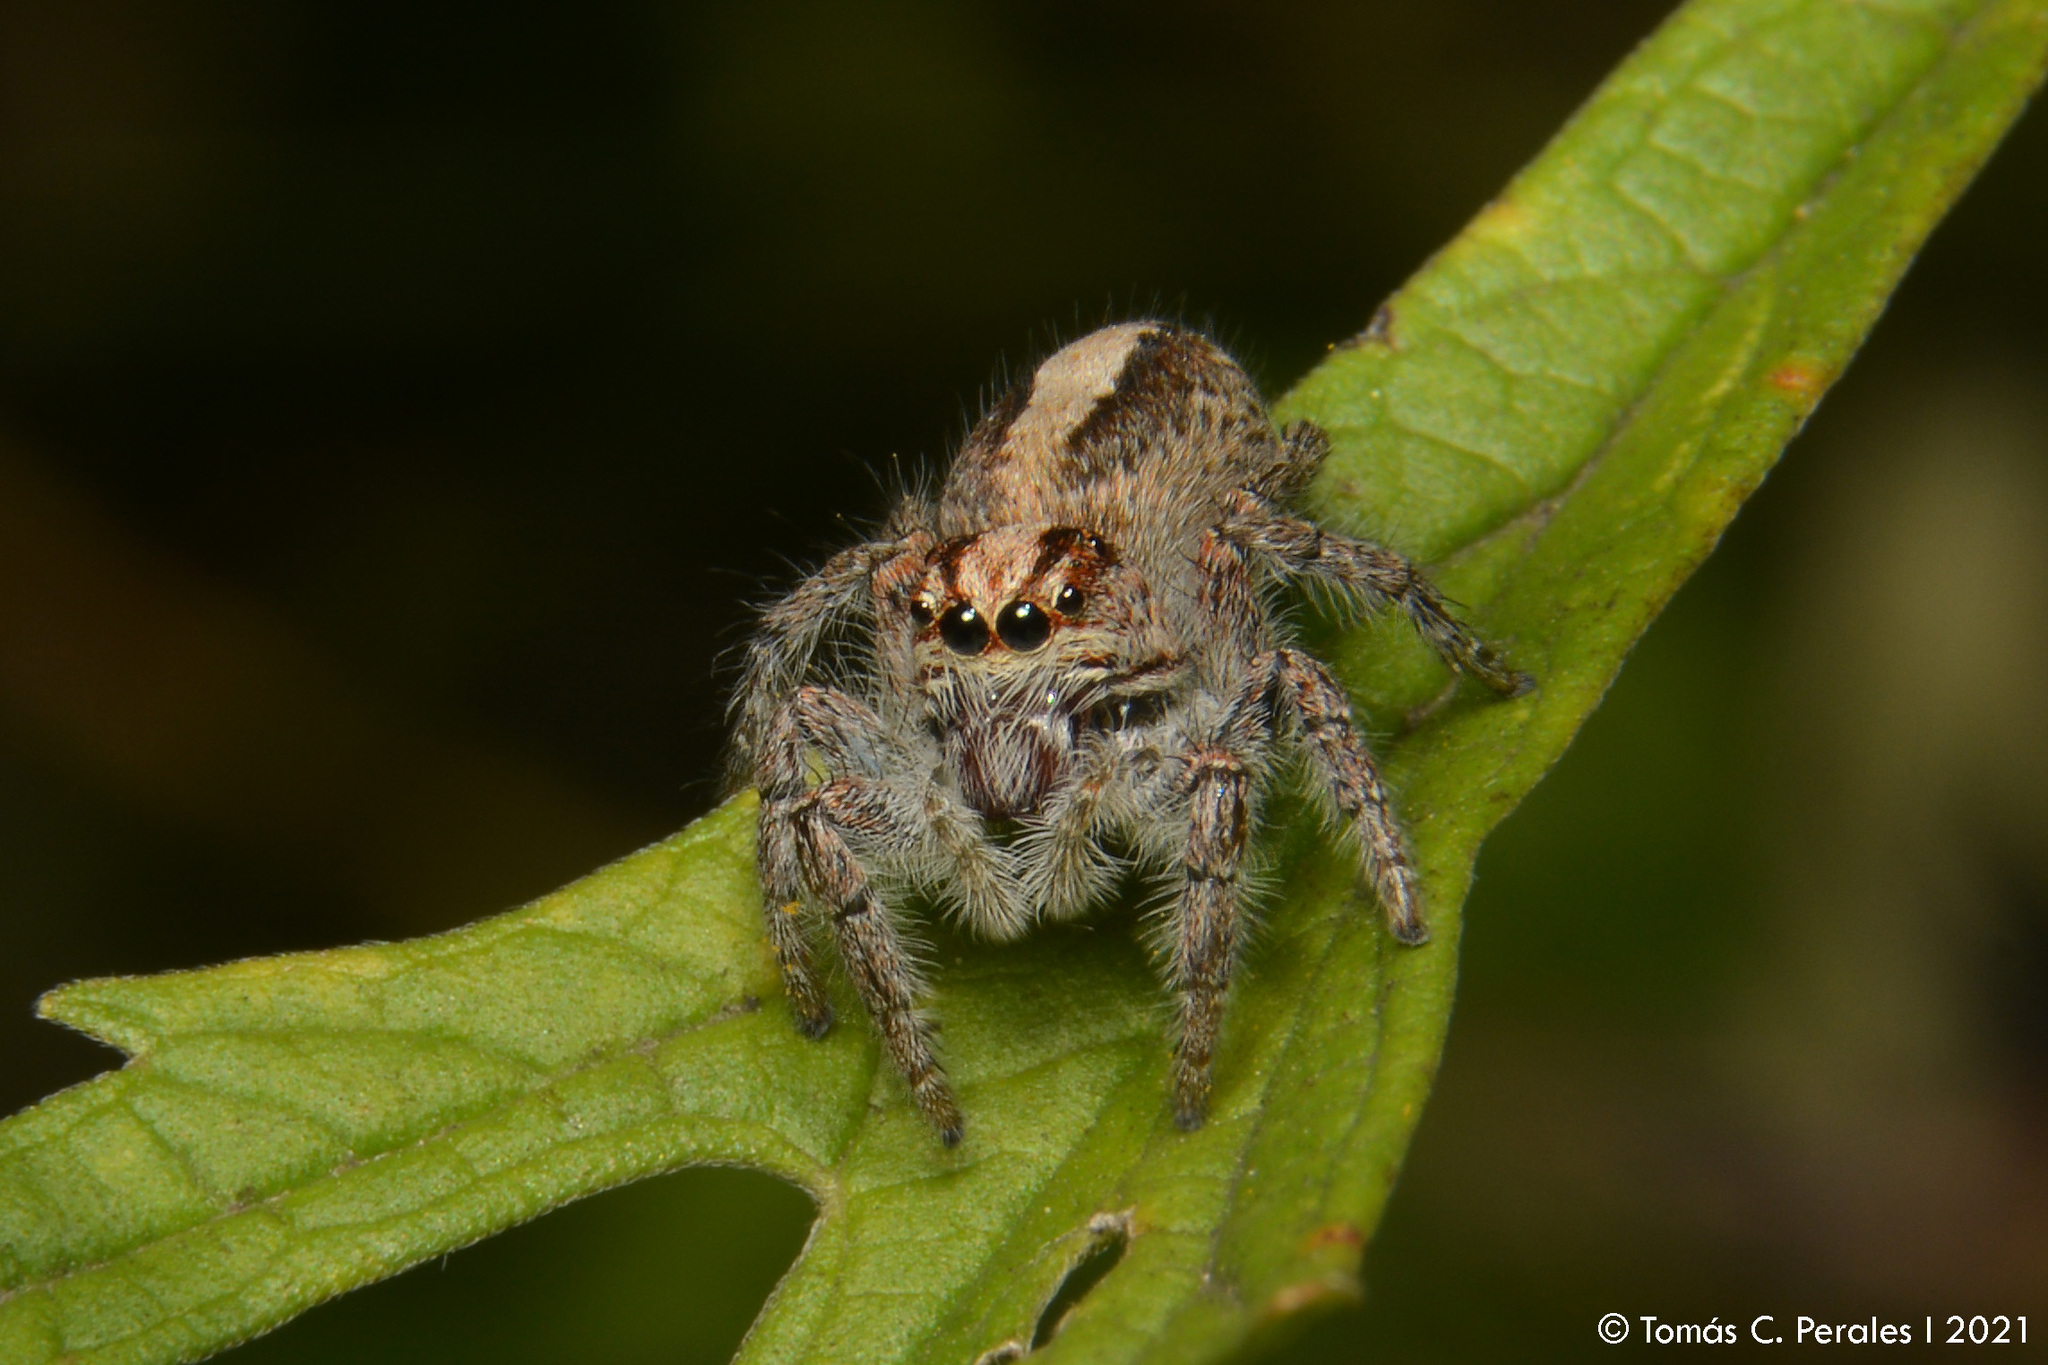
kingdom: Animalia
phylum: Arthropoda
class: Arachnida
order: Araneae
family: Salticidae
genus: Megafreya
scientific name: Megafreya sutrix
